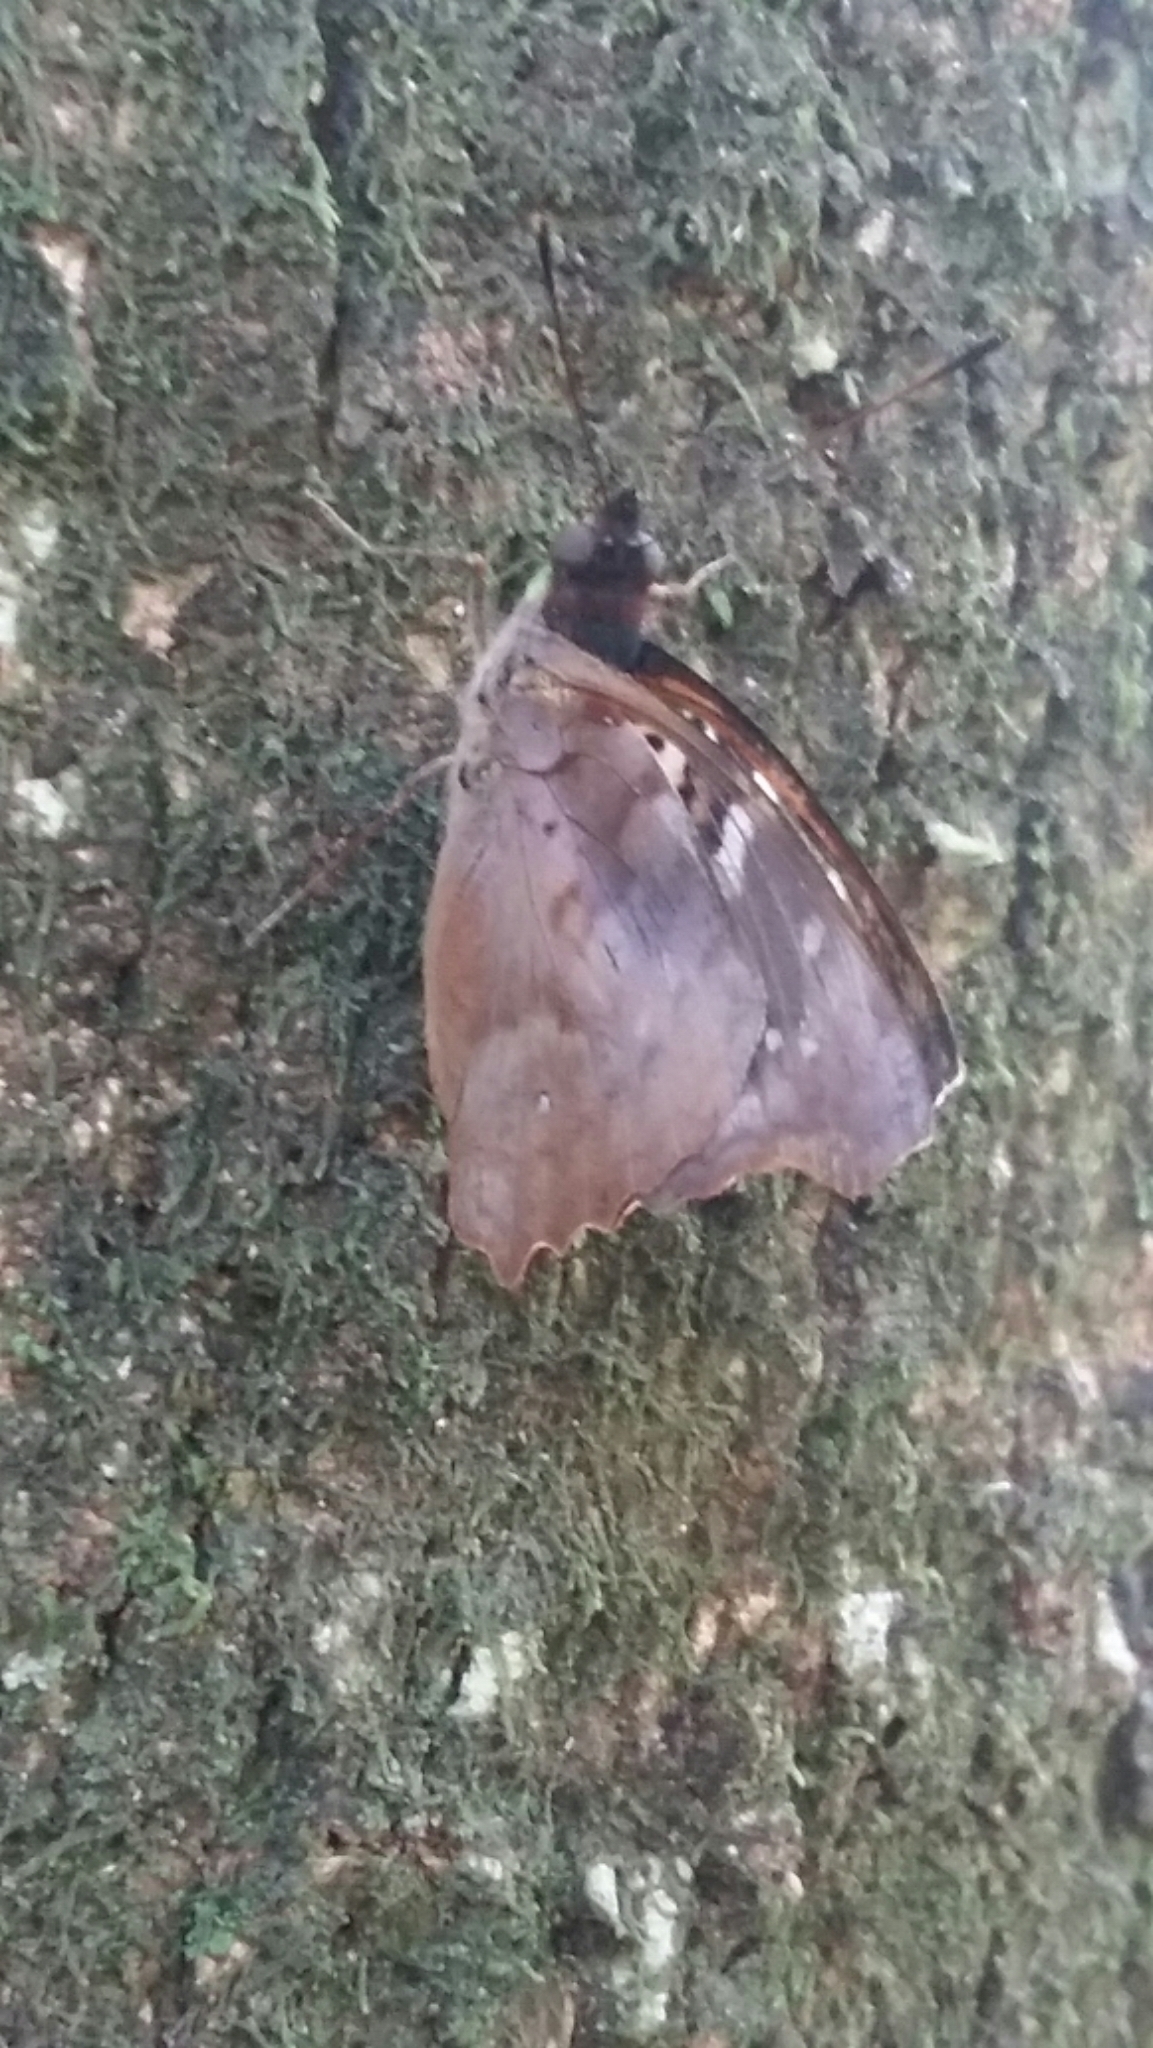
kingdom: Animalia
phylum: Arthropoda
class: Insecta
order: Lepidoptera
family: Nymphalidae
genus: Doxocopa
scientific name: Doxocopa kallina
